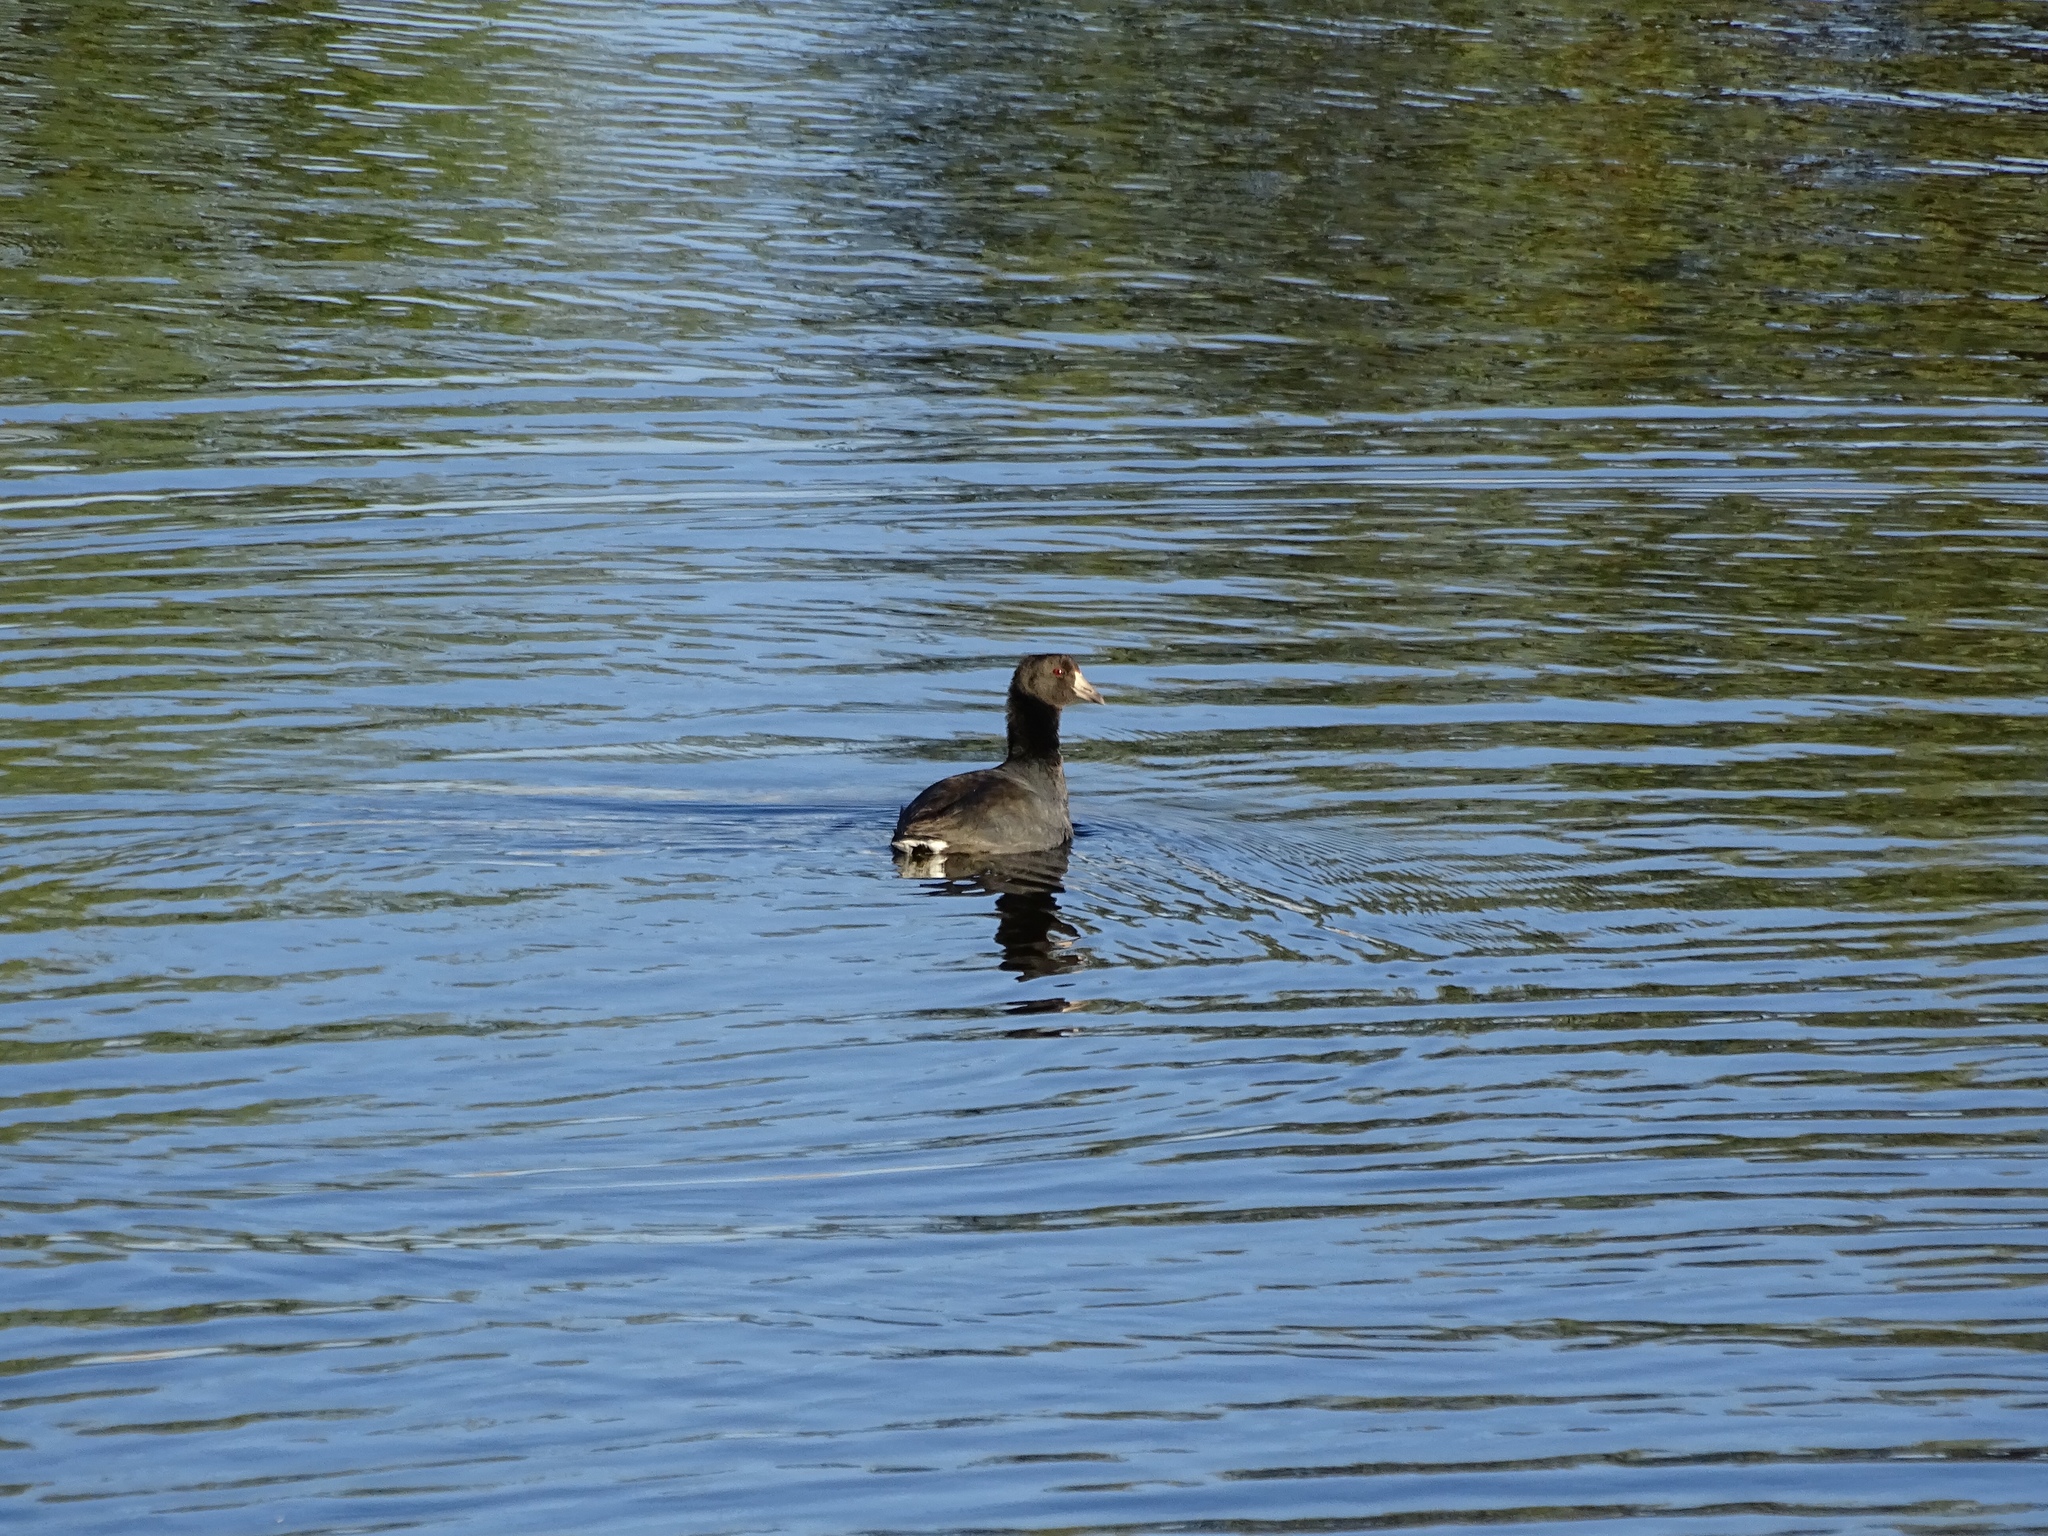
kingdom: Animalia
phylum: Chordata
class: Aves
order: Gruiformes
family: Rallidae
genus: Fulica
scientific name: Fulica americana
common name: American coot
